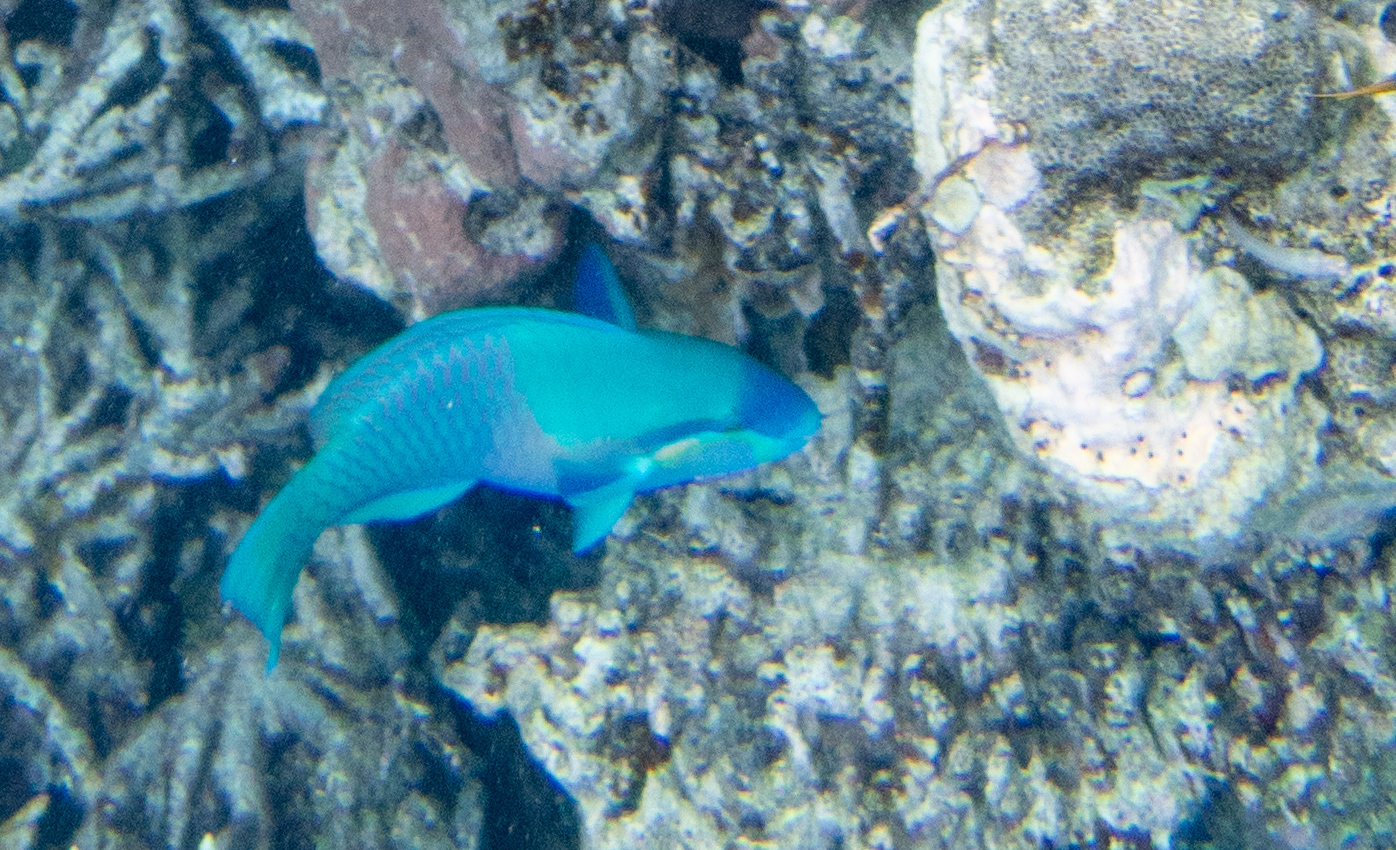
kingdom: Animalia
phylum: Chordata
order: Perciformes
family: Scaridae
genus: Scarus
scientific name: Scarus dimidiatus
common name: Yellowbarred parrotfish
